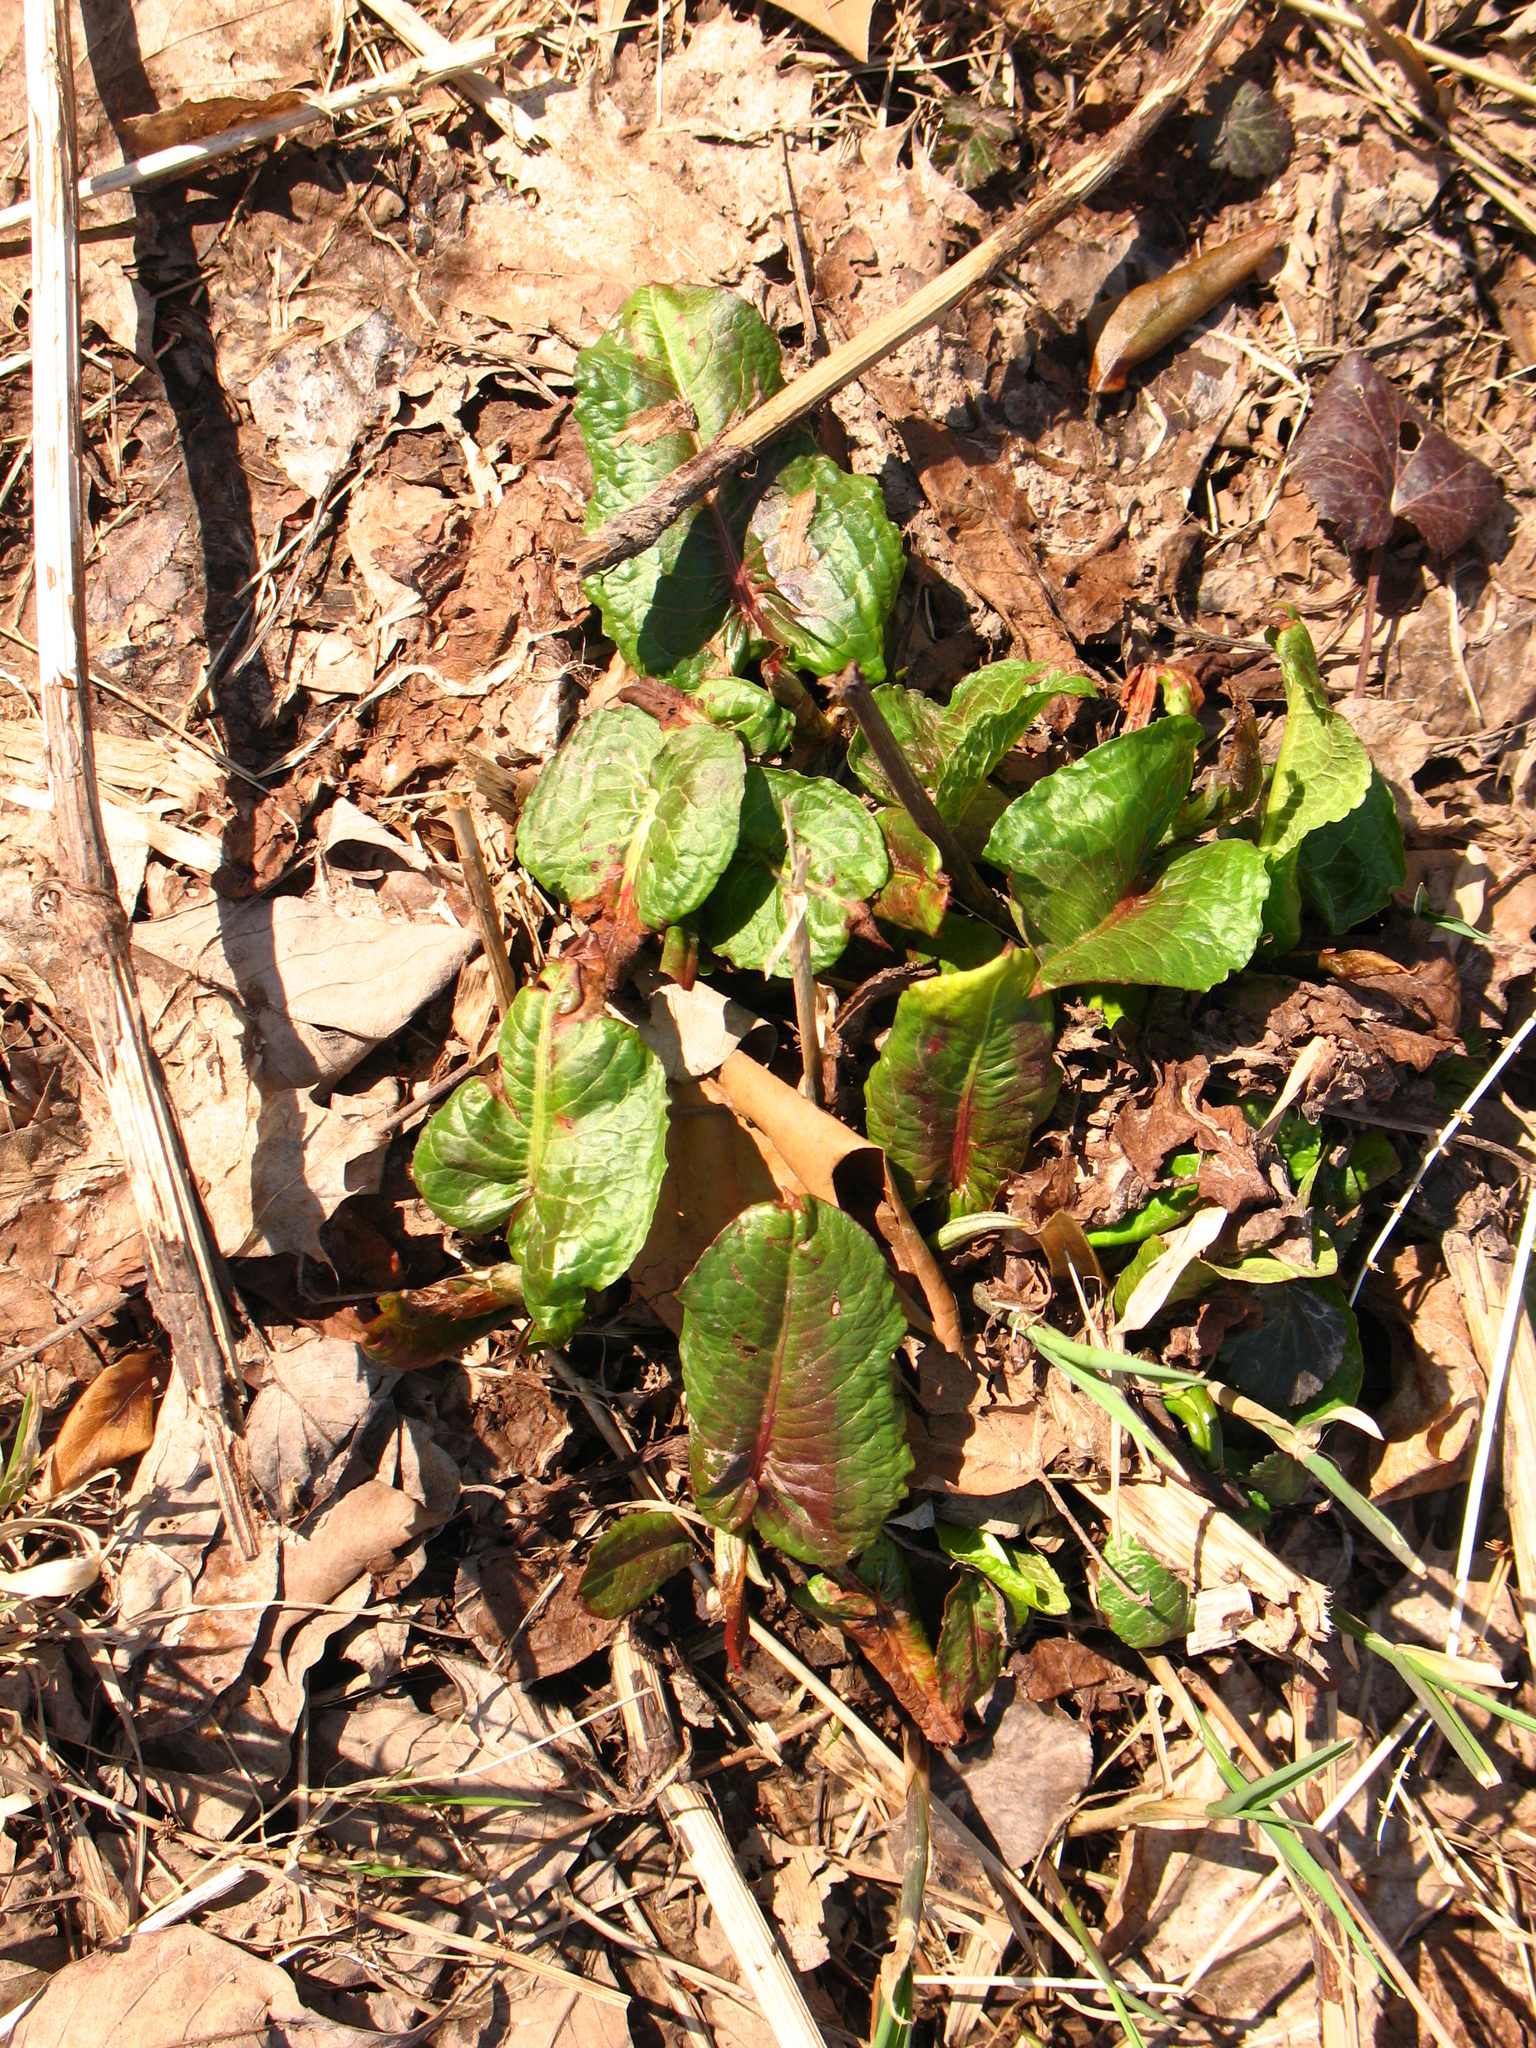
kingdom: Plantae
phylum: Tracheophyta
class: Magnoliopsida
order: Caryophyllales
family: Polygonaceae
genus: Rumex
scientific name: Rumex obtusifolius
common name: Bitter dock
